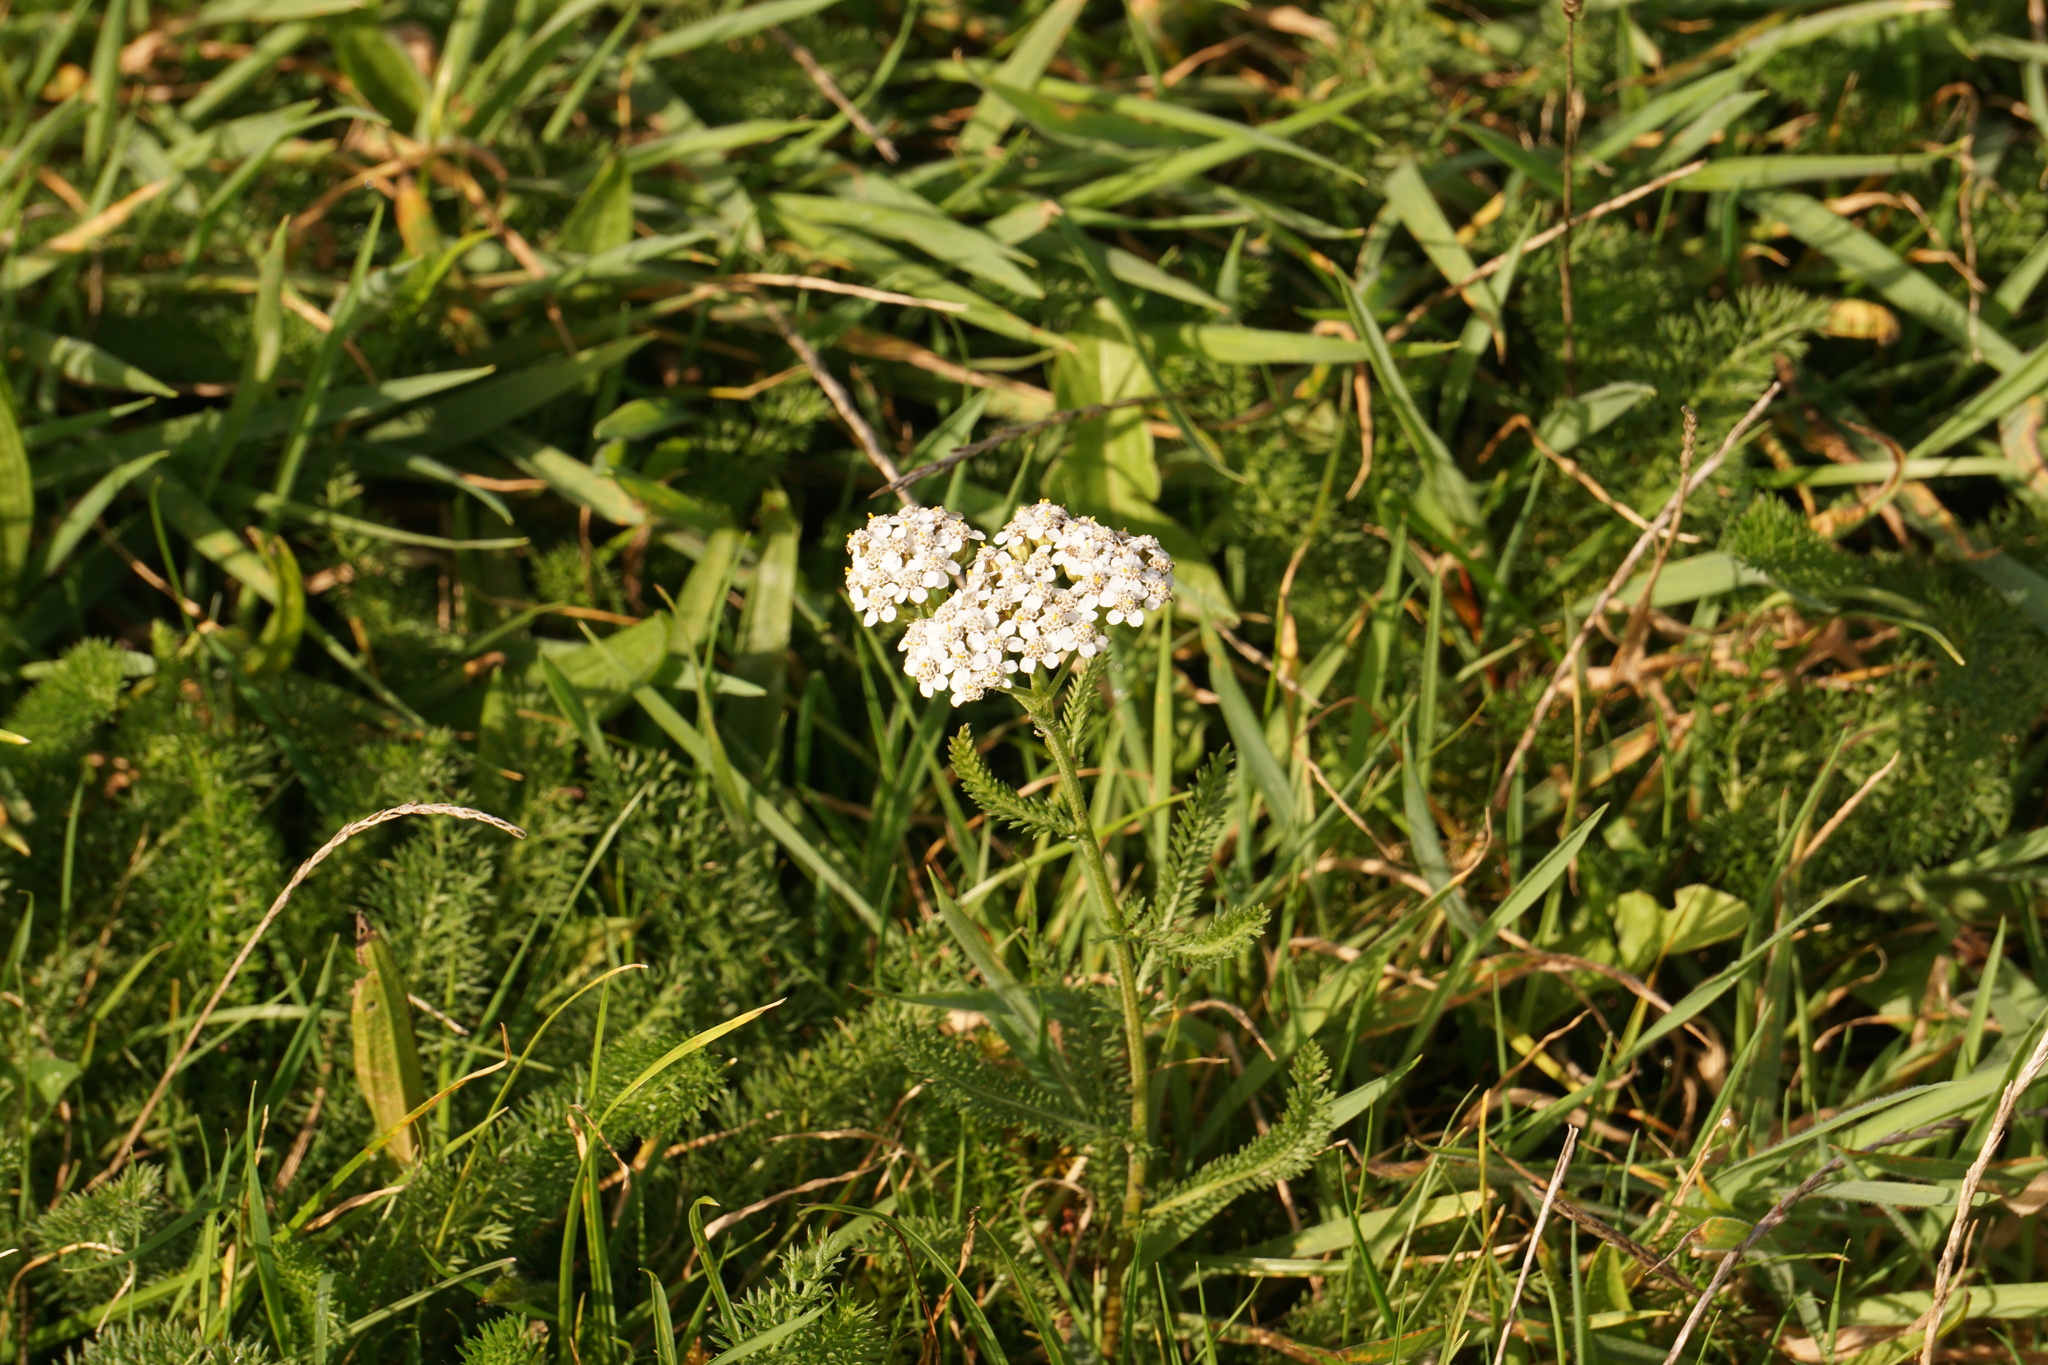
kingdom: Plantae
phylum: Tracheophyta
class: Magnoliopsida
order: Asterales
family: Asteraceae
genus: Achillea
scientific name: Achillea millefolium
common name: Yarrow
